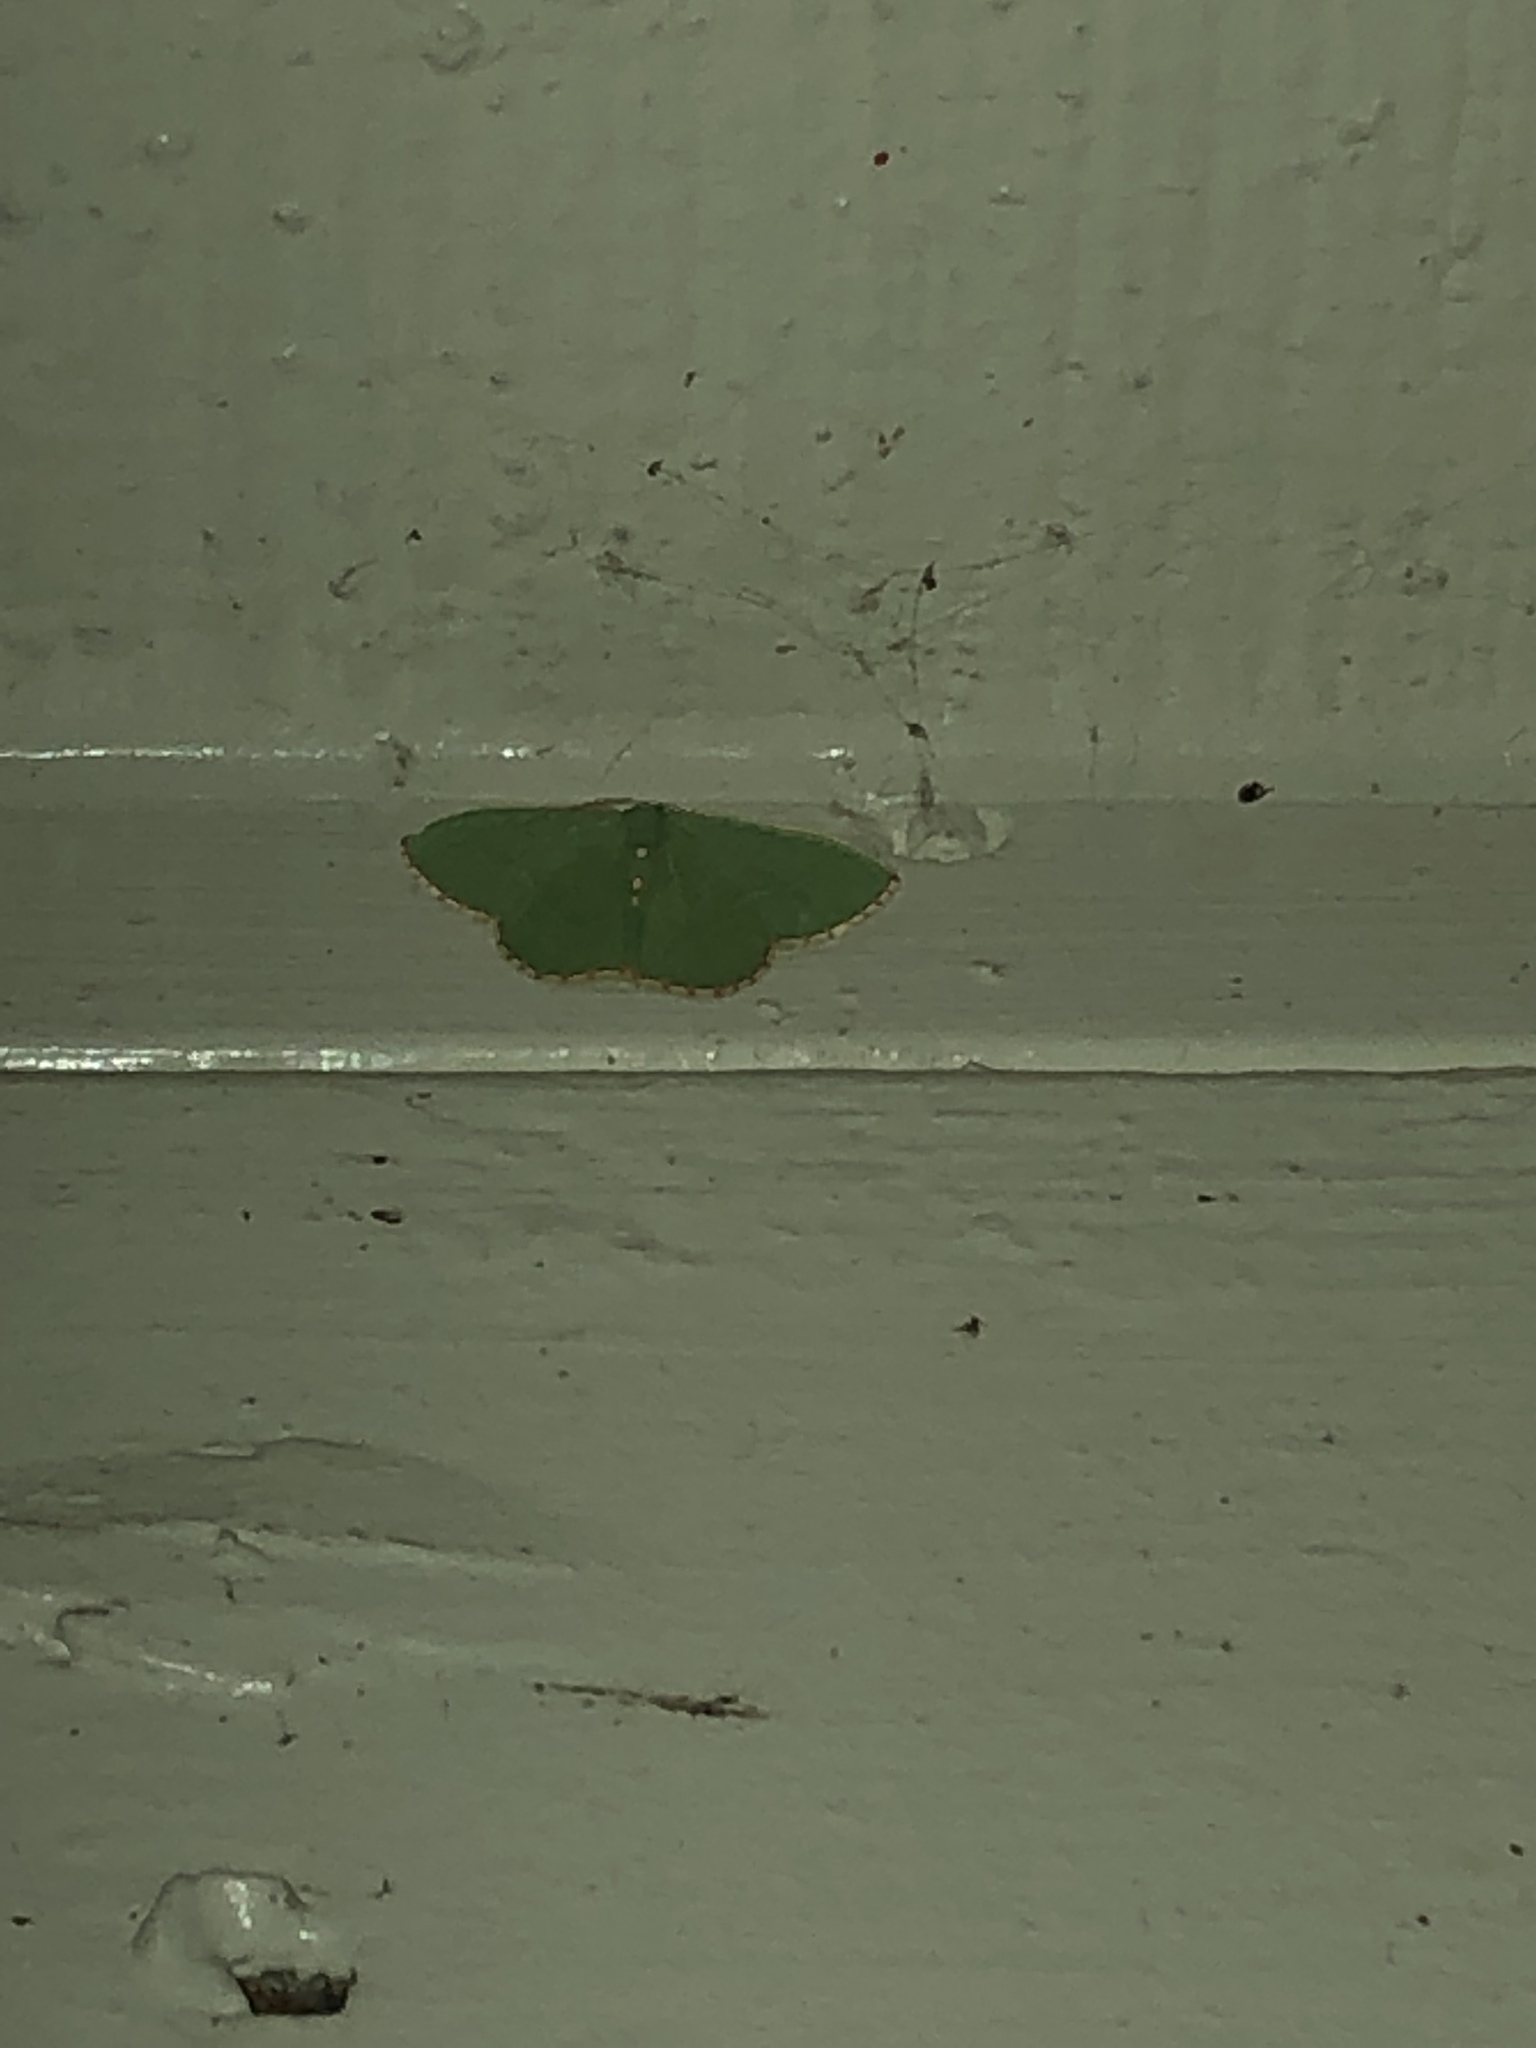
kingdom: Animalia
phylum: Arthropoda
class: Insecta
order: Lepidoptera
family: Geometridae
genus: Nemoria
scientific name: Nemoria lixaria
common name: Red-bordered emerald
